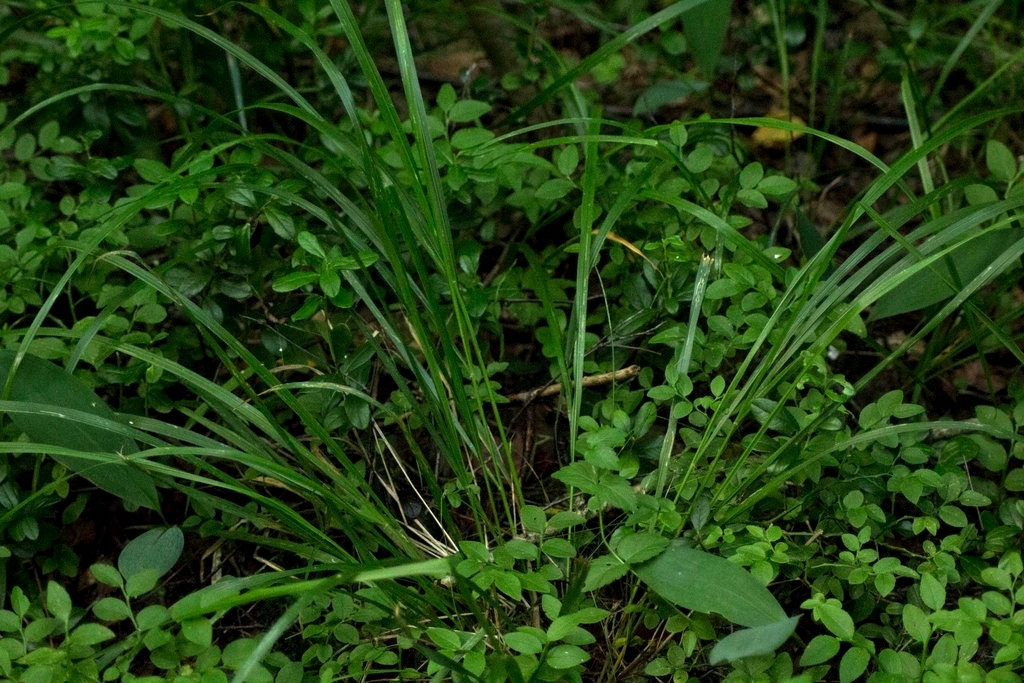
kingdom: Plantae
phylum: Tracheophyta
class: Liliopsida
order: Poales
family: Poaceae
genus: Calamagrostis
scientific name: Calamagrostis arundinacea
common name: Metskastik
